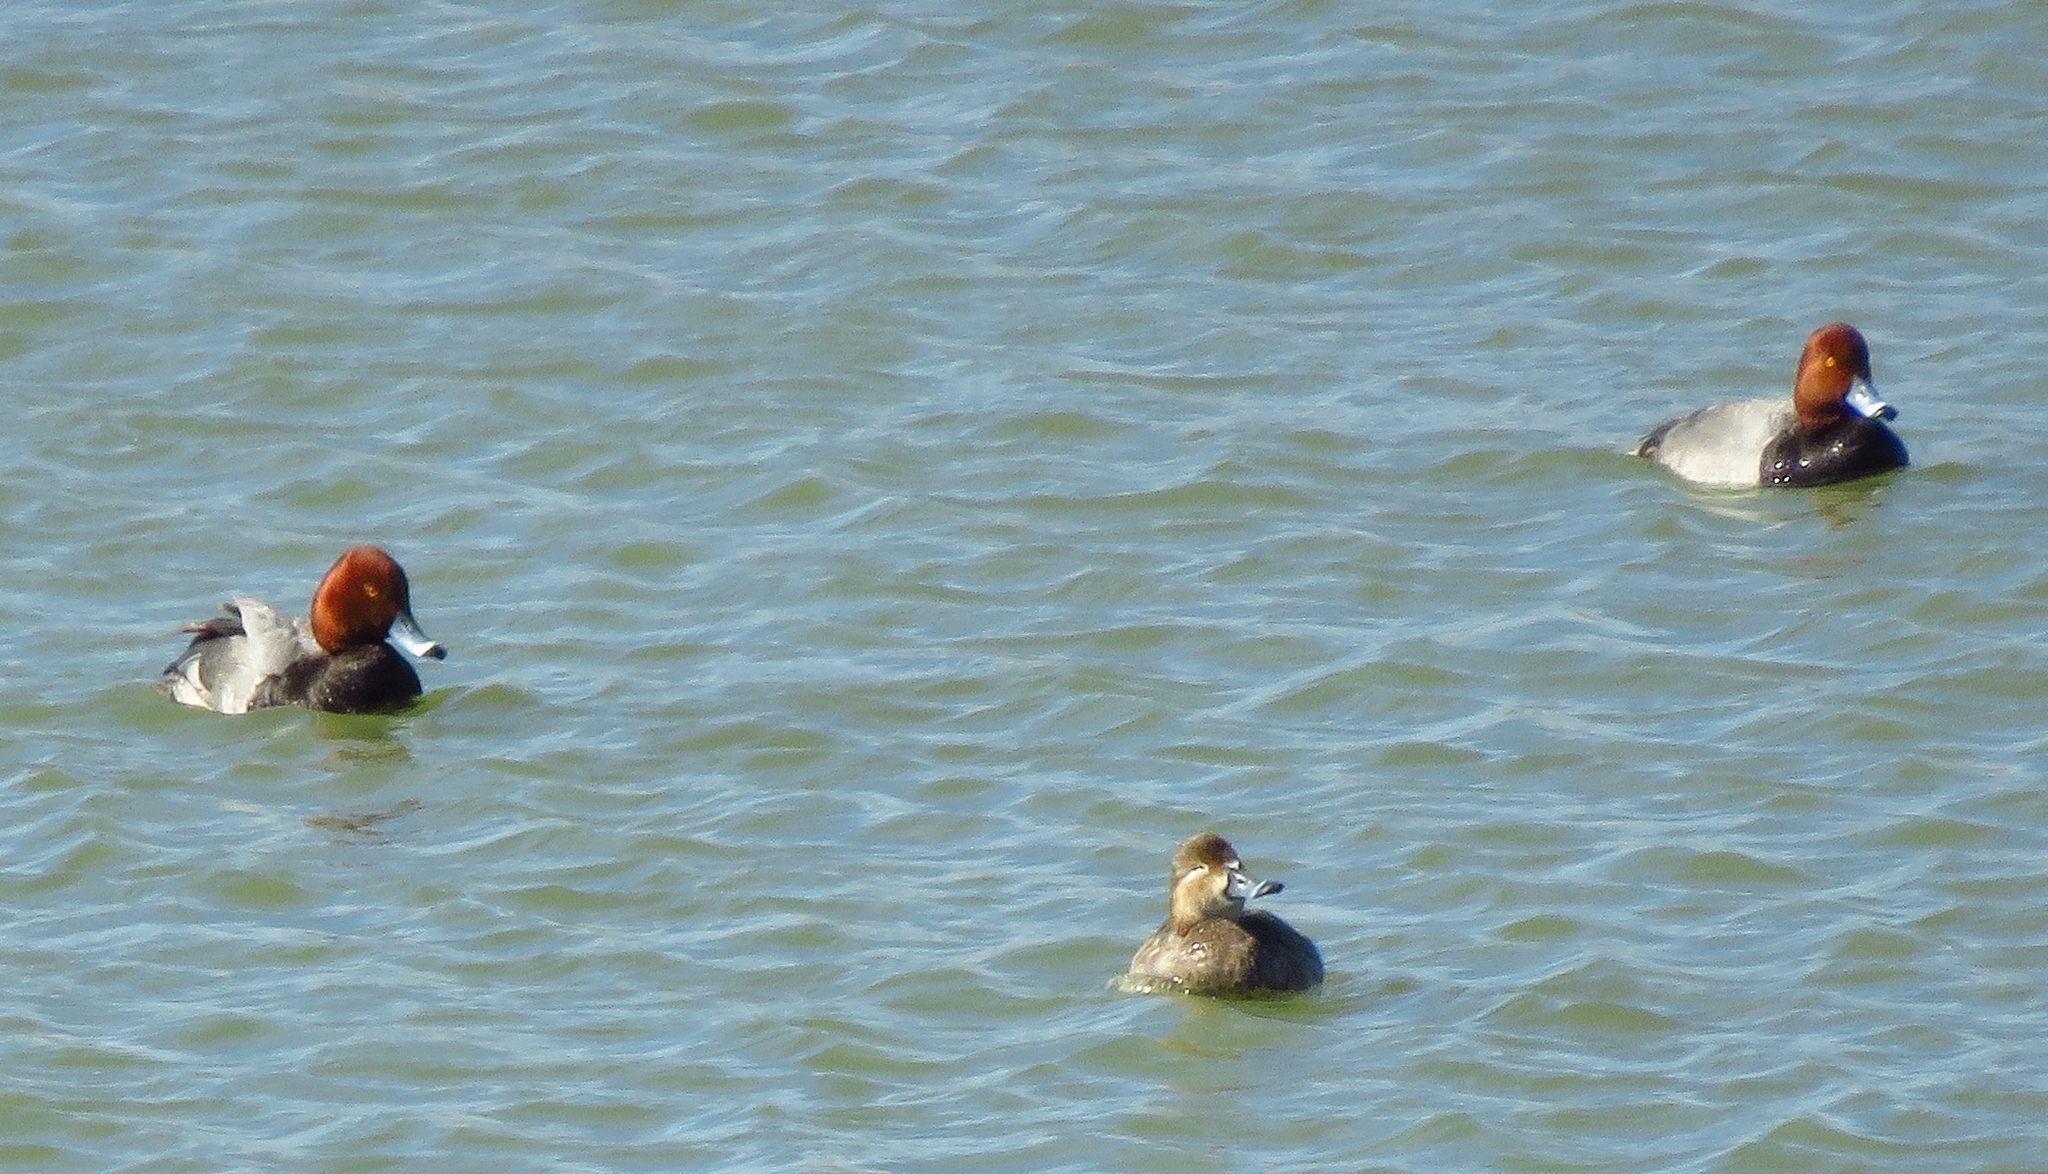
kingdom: Animalia
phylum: Chordata
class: Aves
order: Anseriformes
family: Anatidae
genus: Aythya
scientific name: Aythya americana
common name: Redhead
